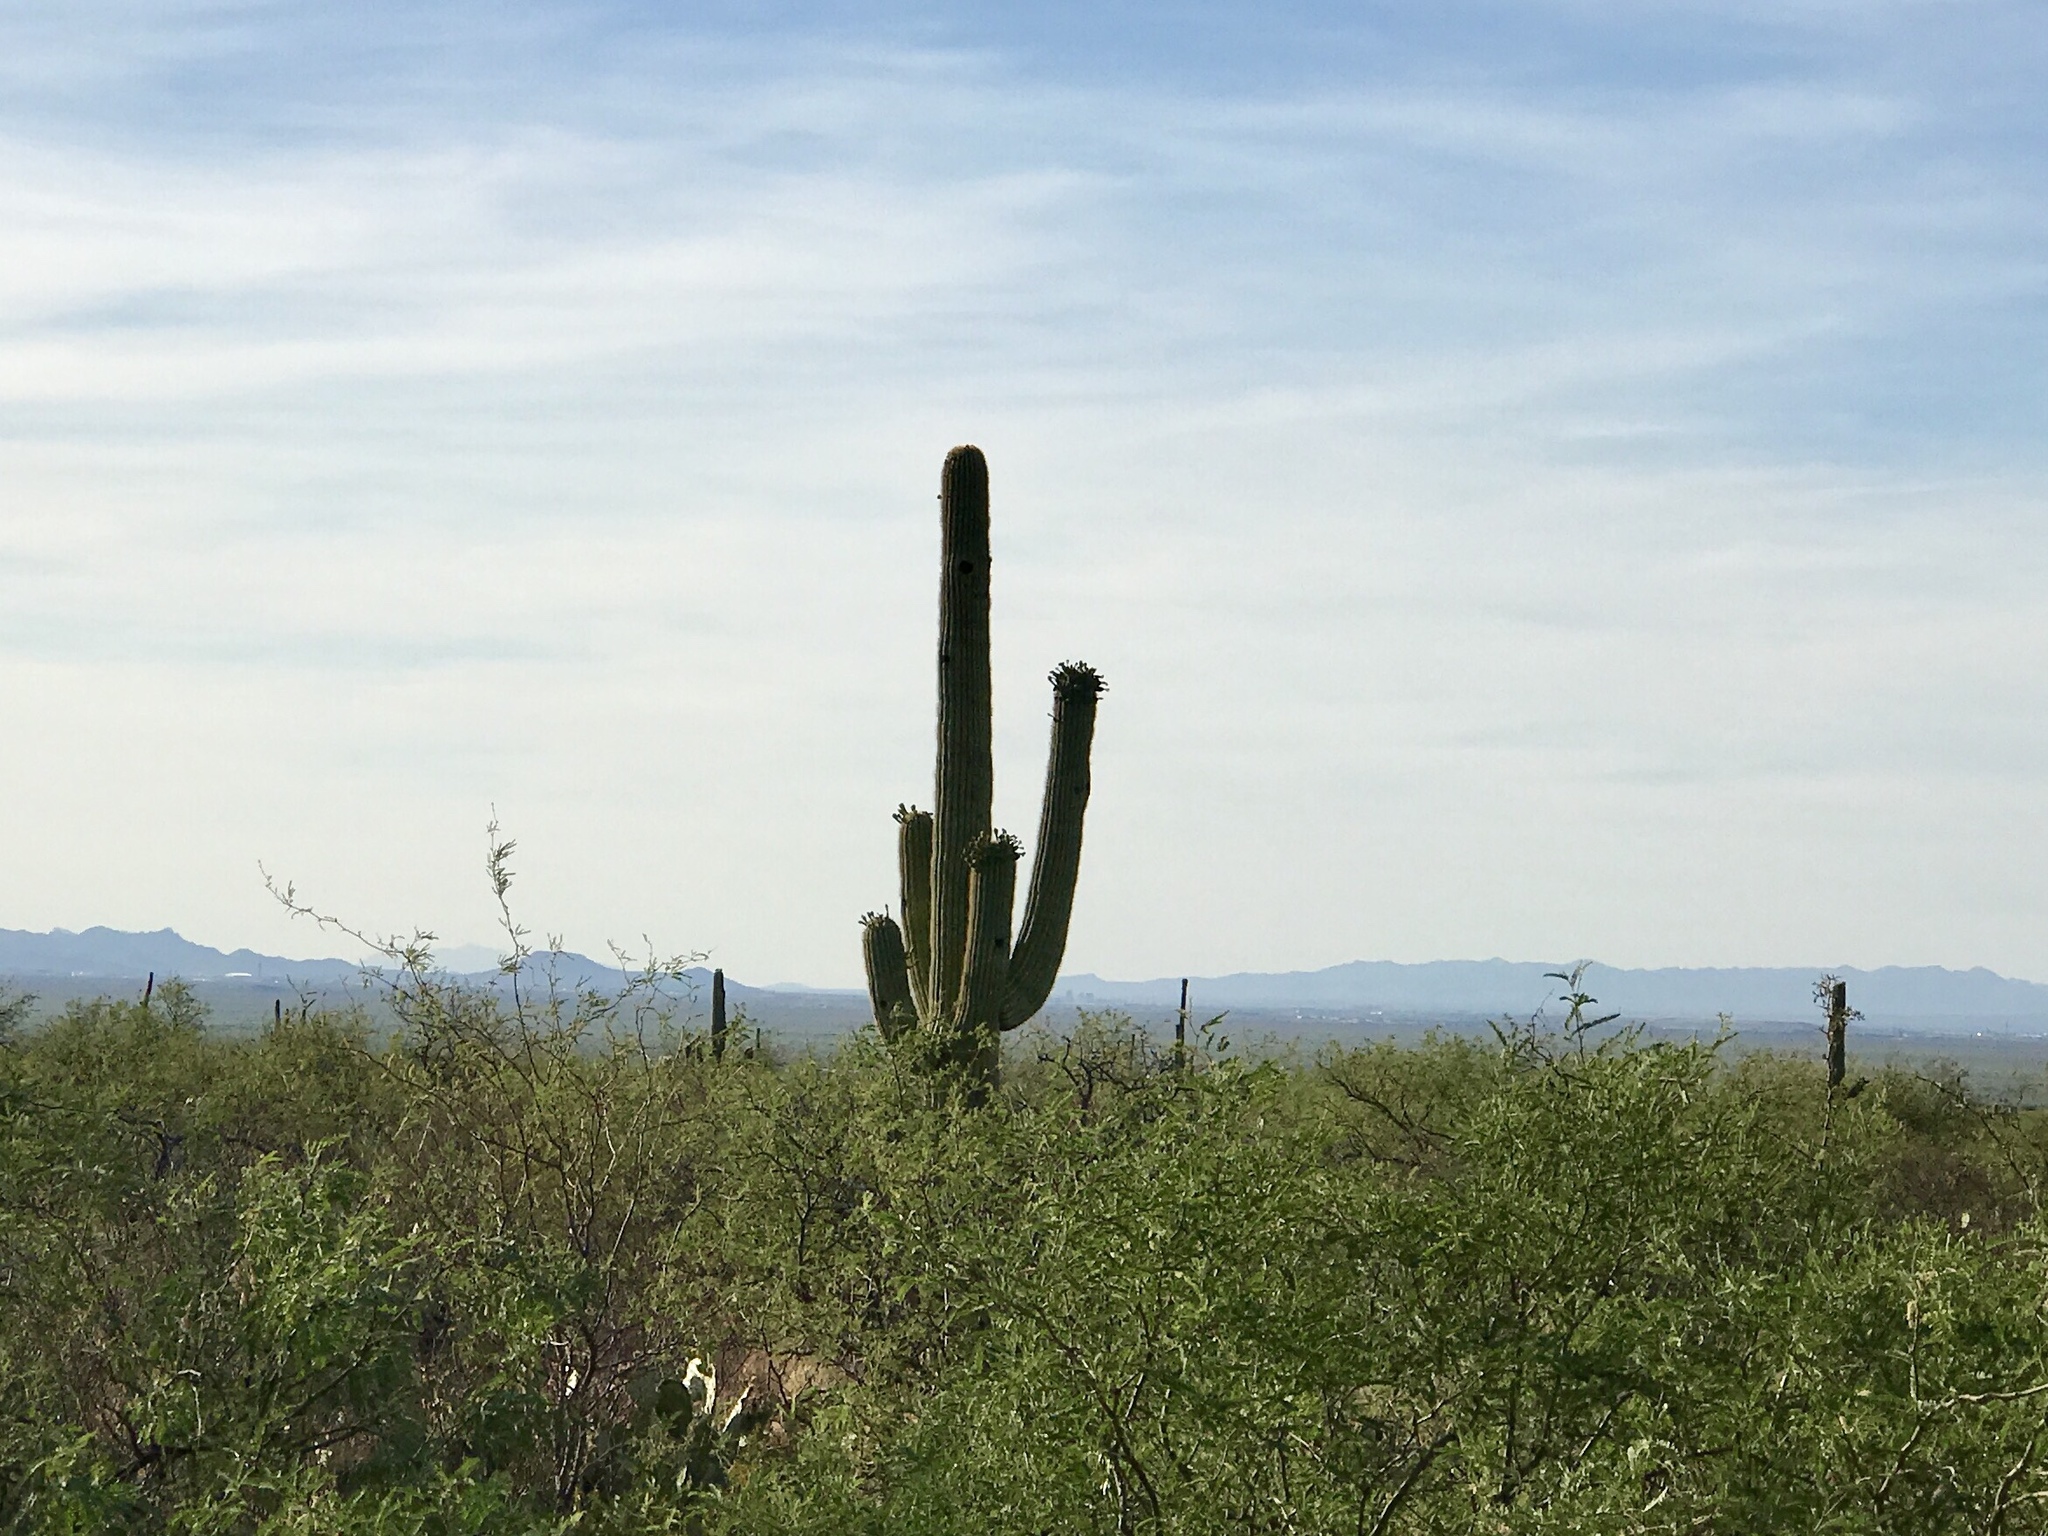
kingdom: Plantae
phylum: Tracheophyta
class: Magnoliopsida
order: Caryophyllales
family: Cactaceae
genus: Carnegiea
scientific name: Carnegiea gigantea
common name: Saguaro
